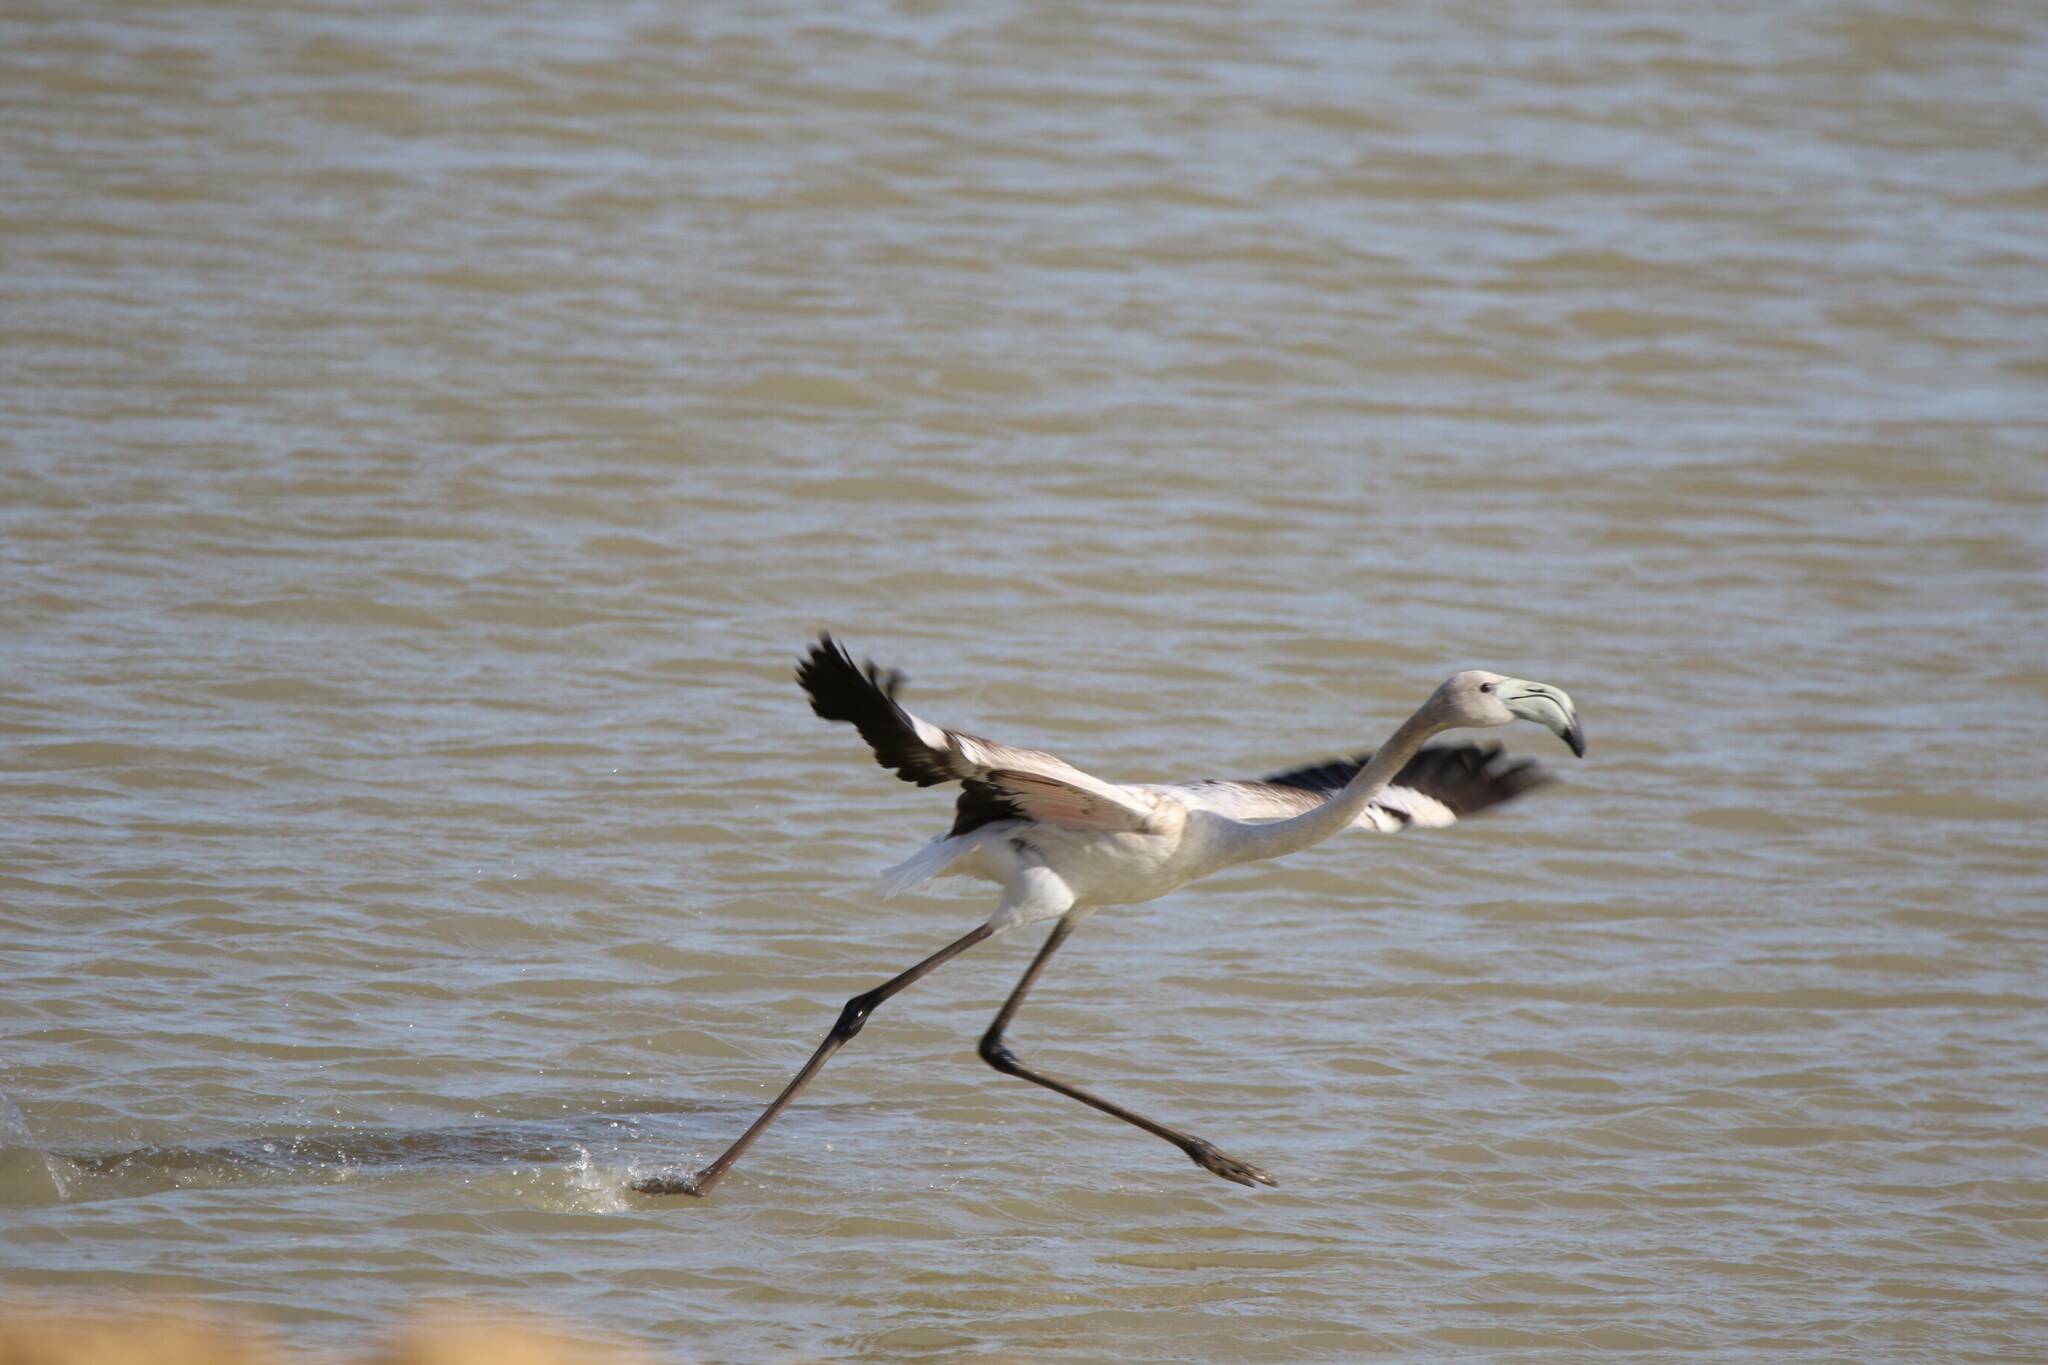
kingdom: Animalia
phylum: Chordata
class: Aves
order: Phoenicopteriformes
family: Phoenicopteridae
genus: Phoenicopterus
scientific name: Phoenicopterus roseus
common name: Greater flamingo
